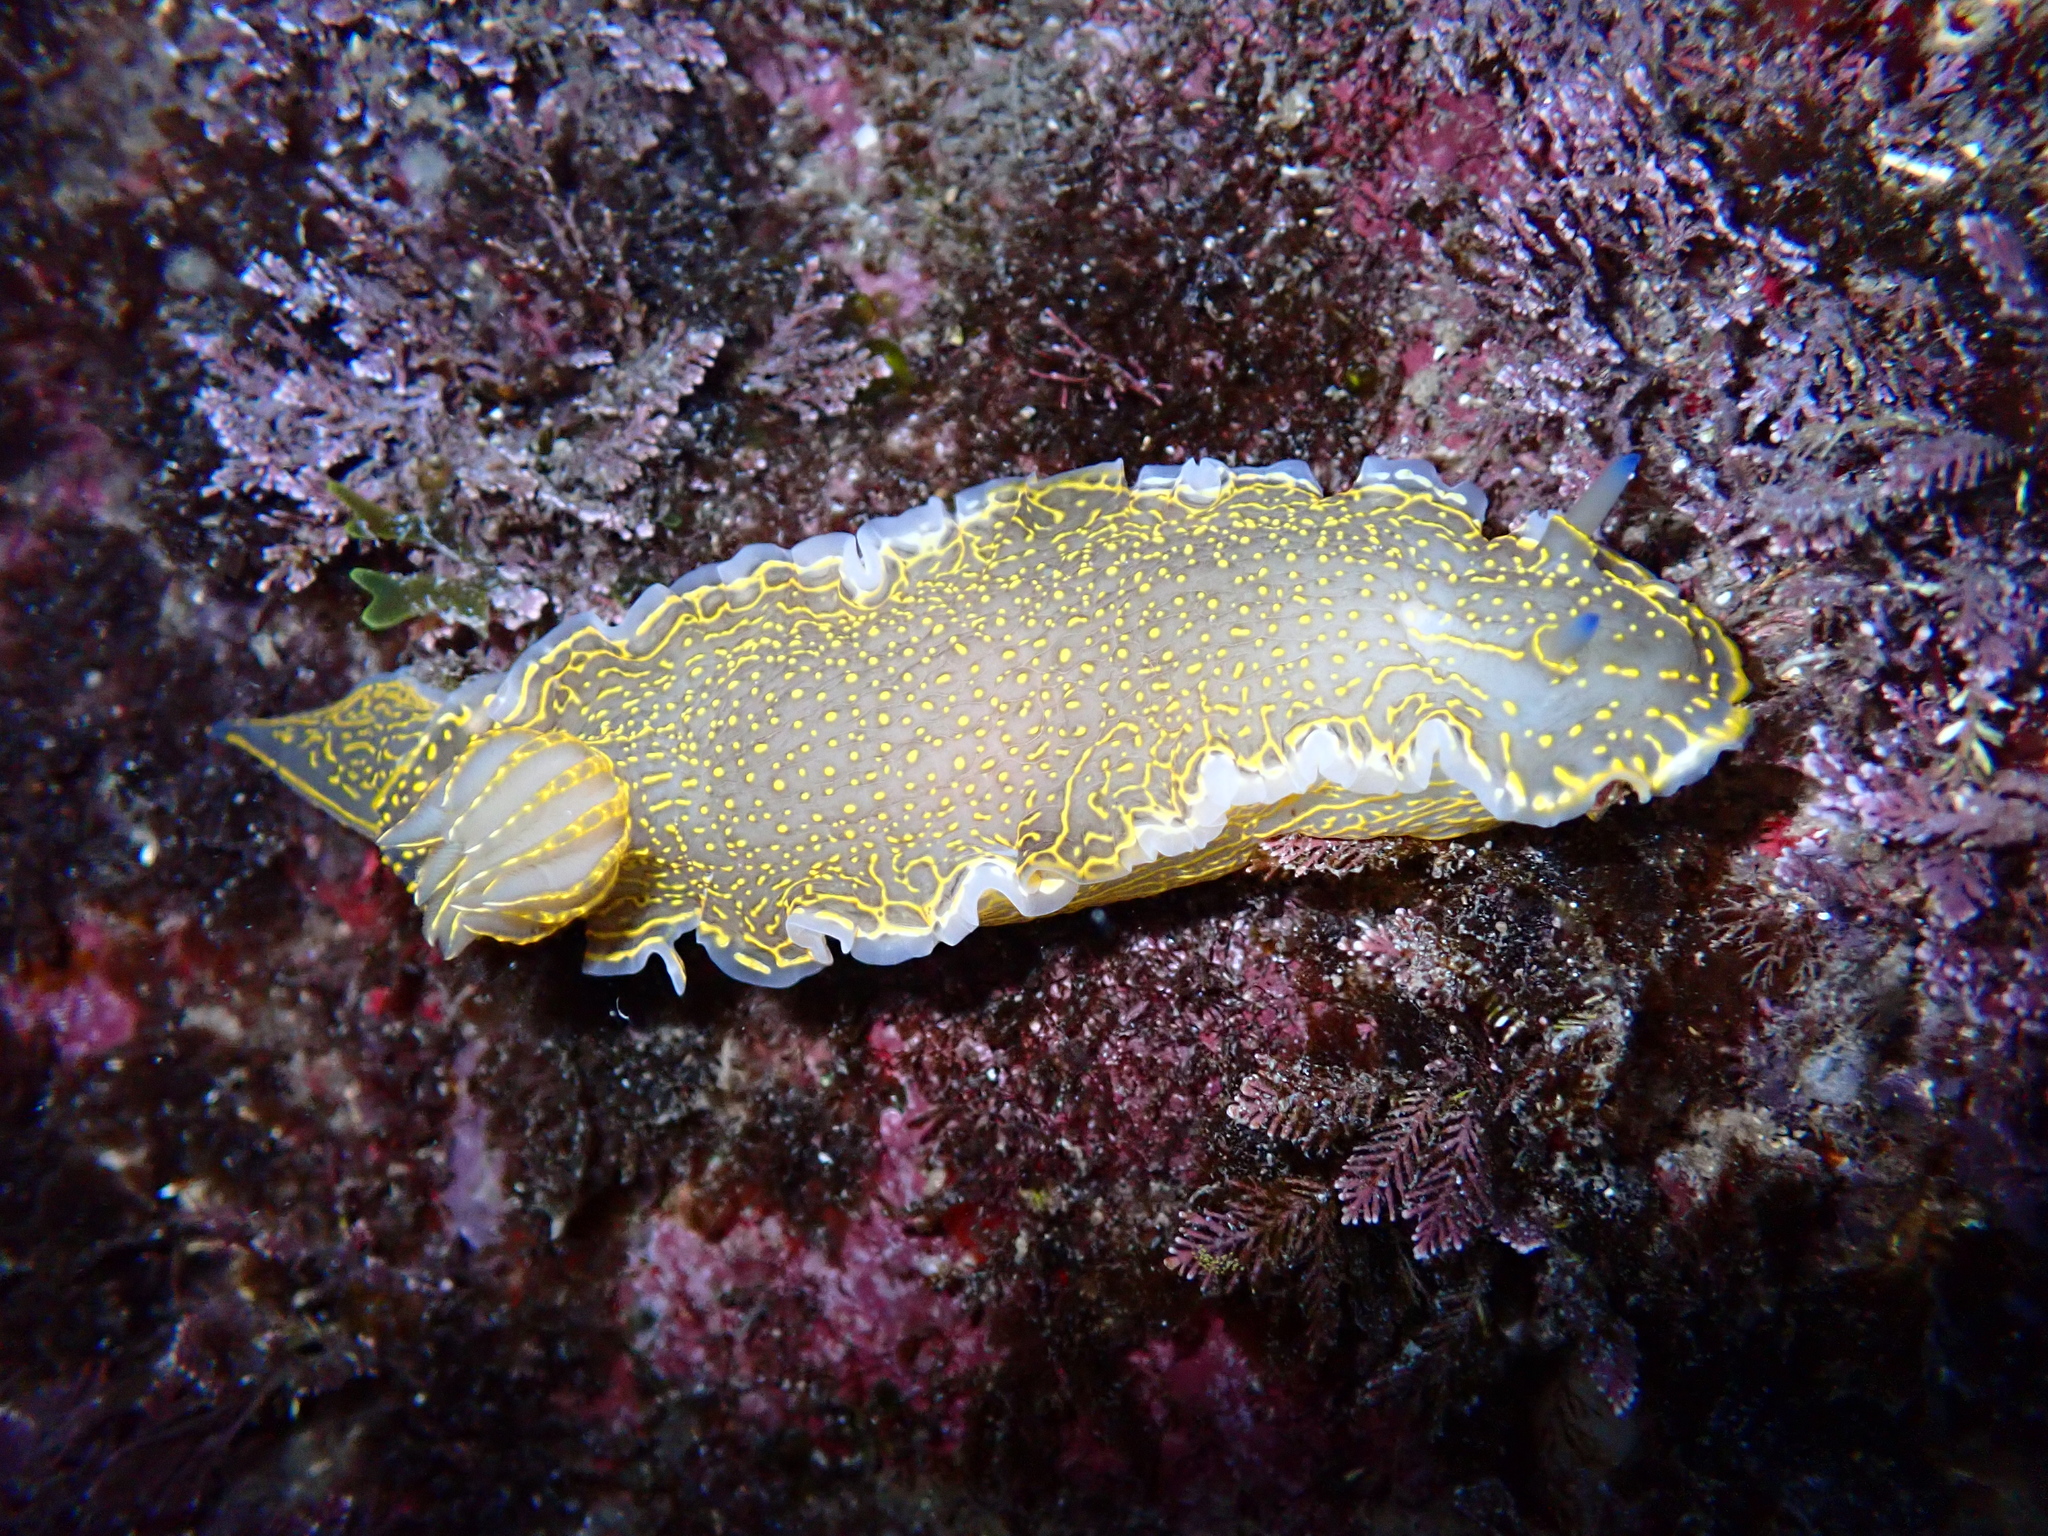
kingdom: Animalia
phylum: Mollusca
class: Gastropoda
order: Nudibranchia
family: Chromodorididae
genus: Felimare
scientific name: Felimare picta
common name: Giant doris
